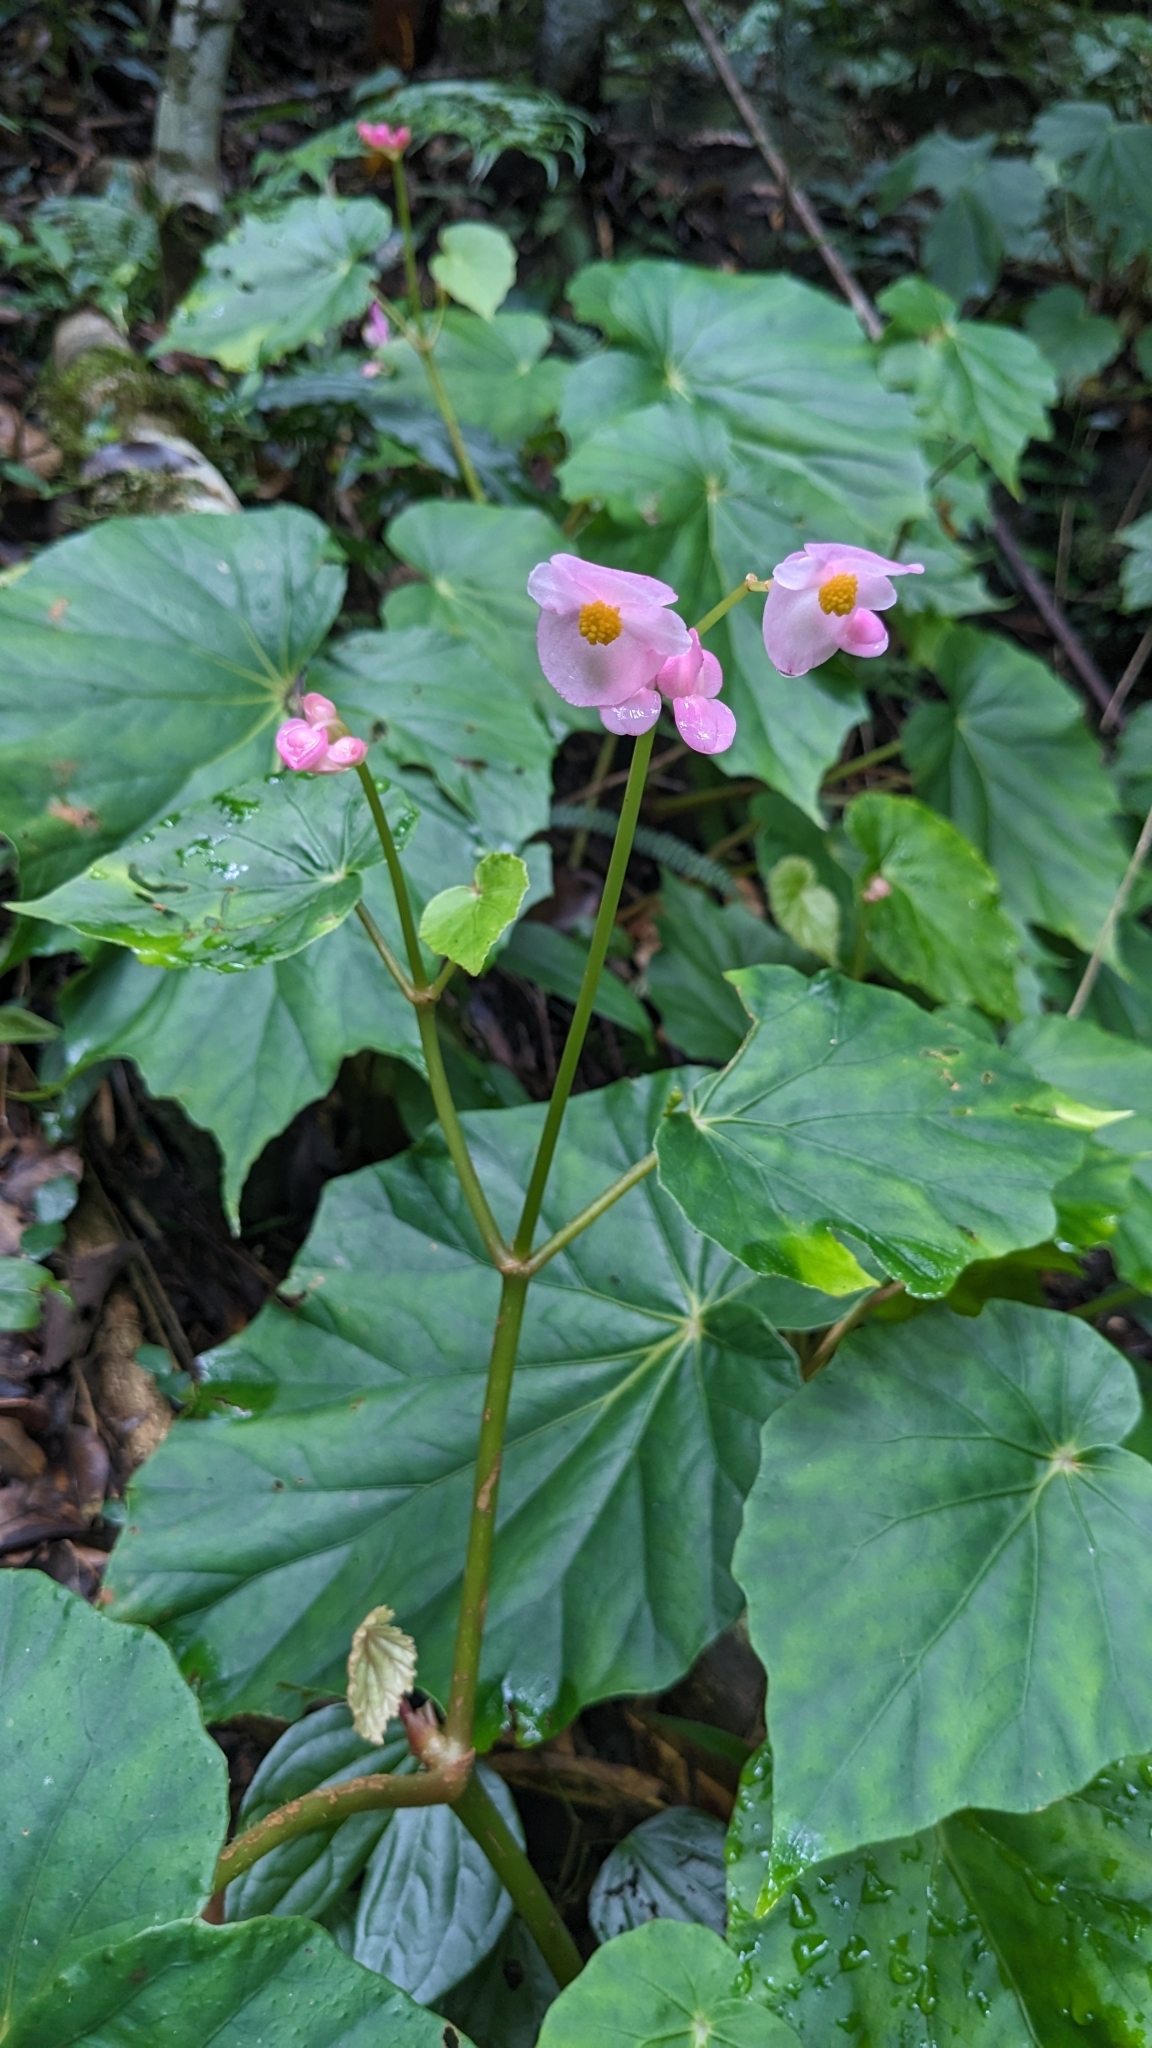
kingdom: Plantae
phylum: Tracheophyta
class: Magnoliopsida
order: Cucurbitales
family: Begoniaceae
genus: Begonia
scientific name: Begonia chitoensis
